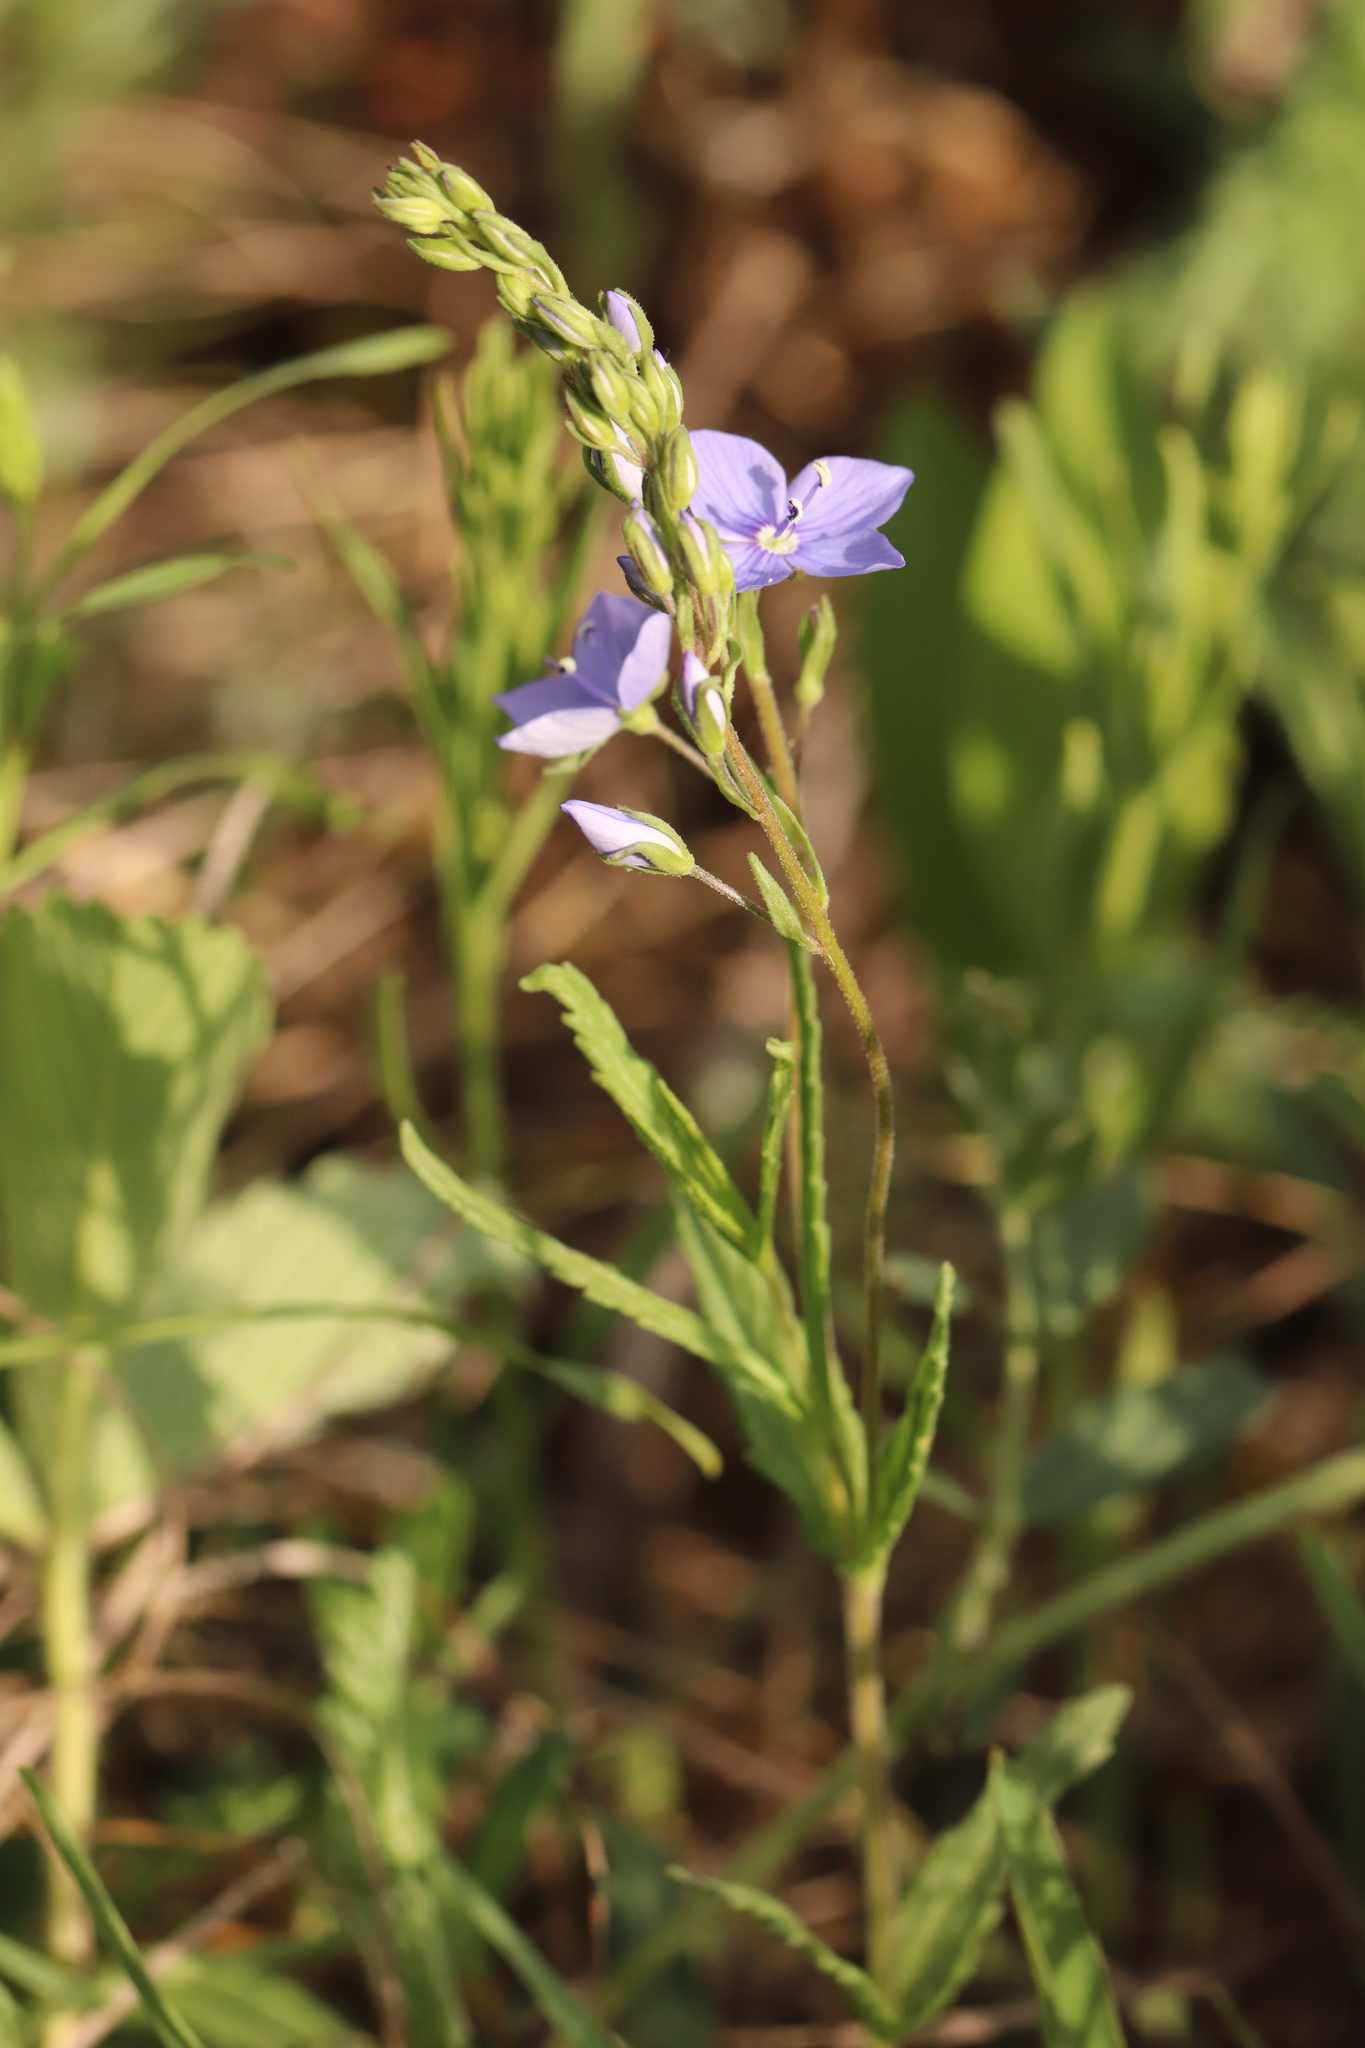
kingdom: Plantae
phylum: Tracheophyta
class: Magnoliopsida
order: Lamiales
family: Plantaginaceae
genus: Veronica
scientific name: Veronica krylovii
